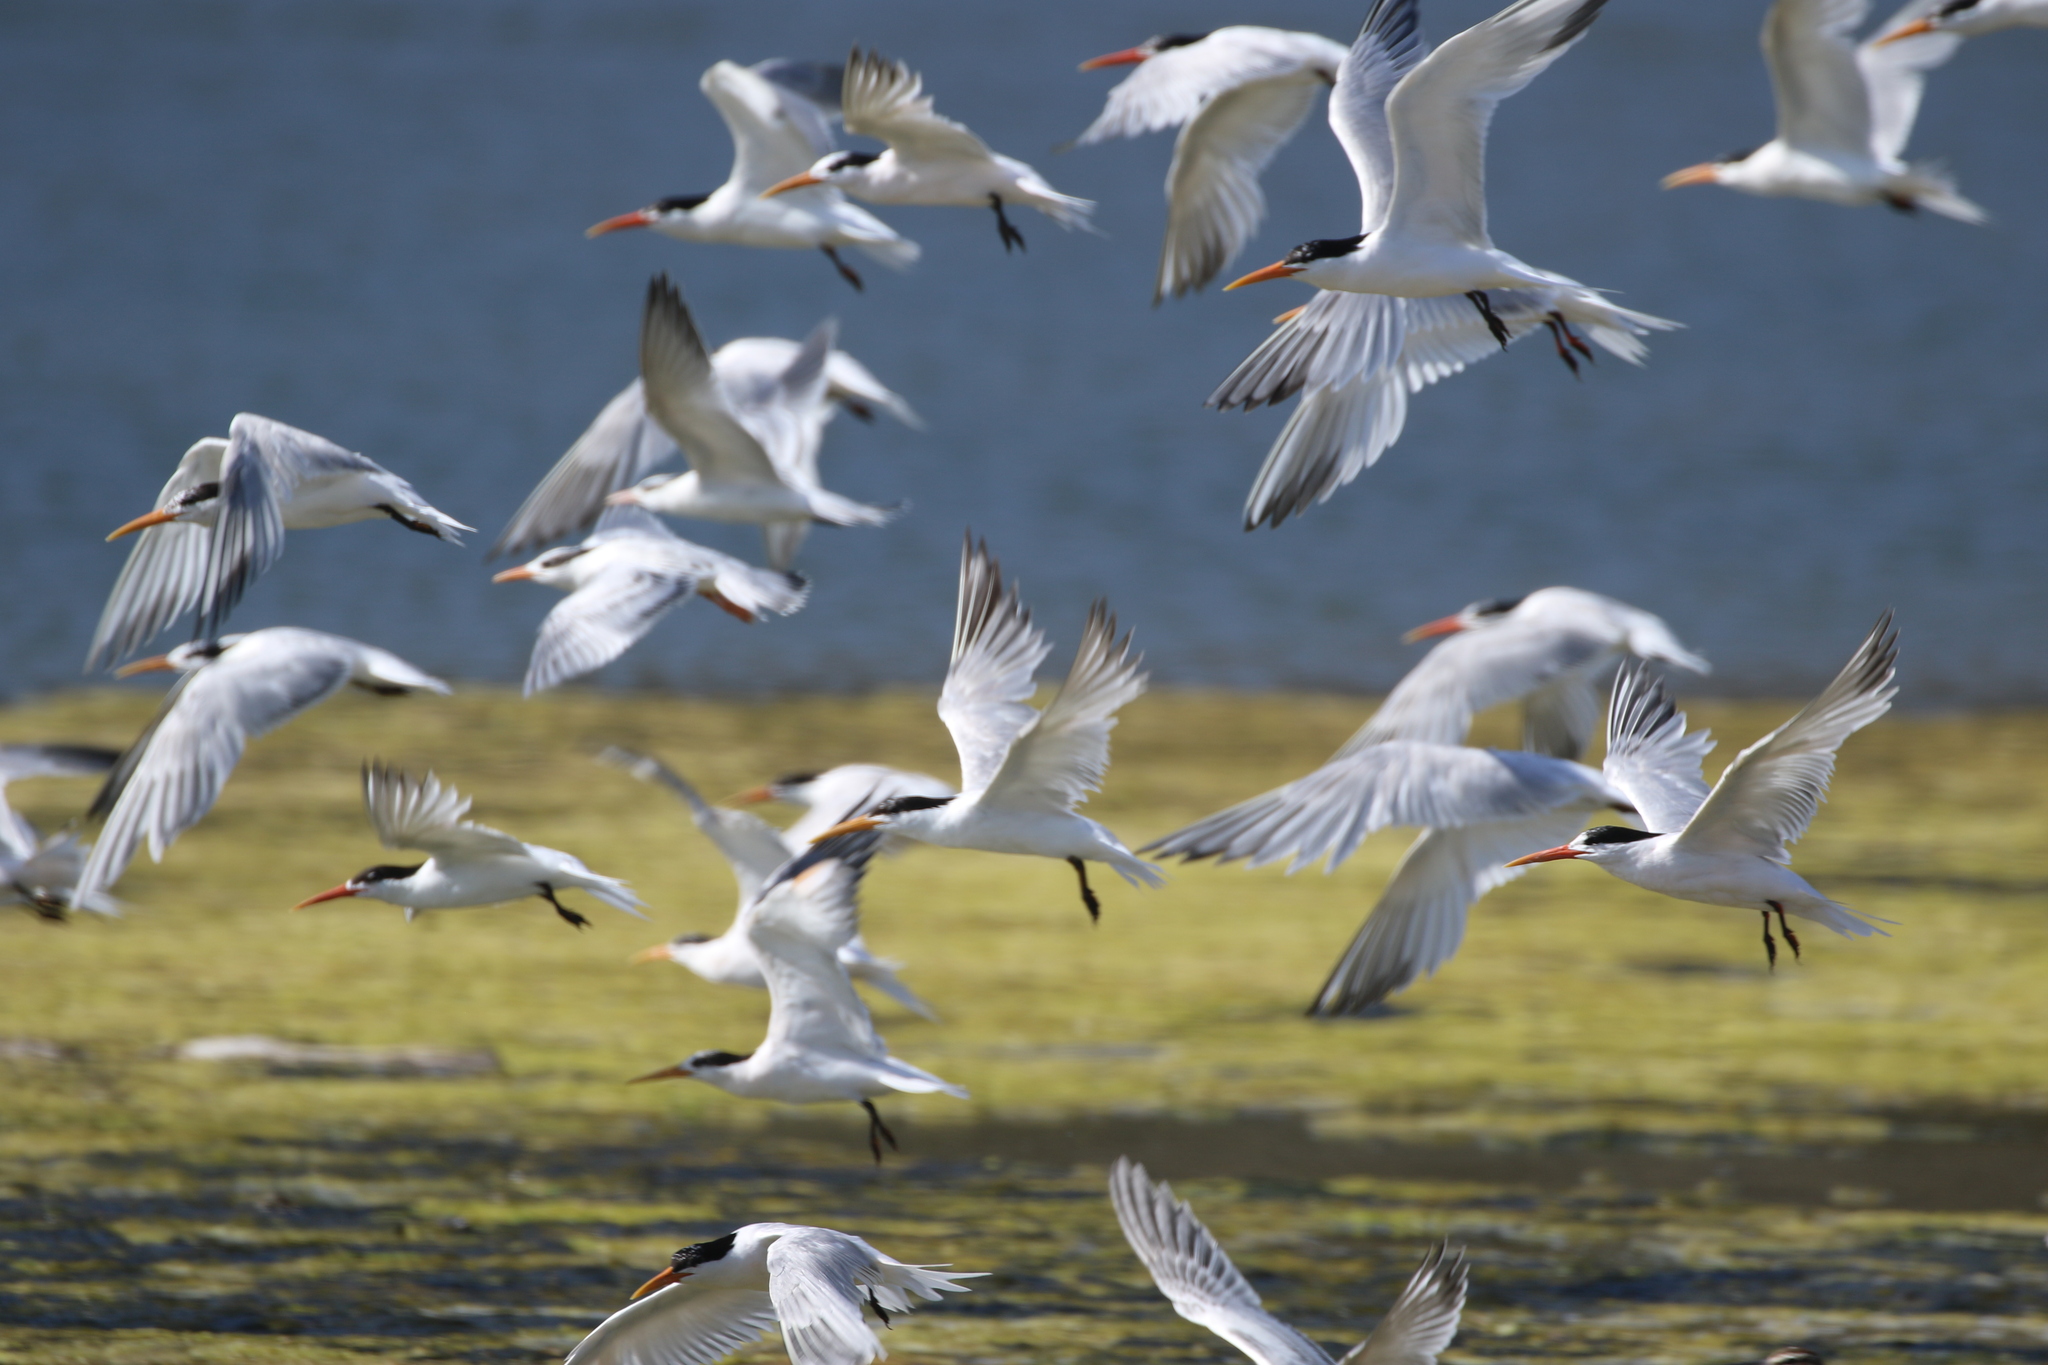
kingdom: Animalia
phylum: Chordata
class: Aves
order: Charadriiformes
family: Laridae
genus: Thalasseus
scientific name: Thalasseus elegans
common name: Elegant tern
